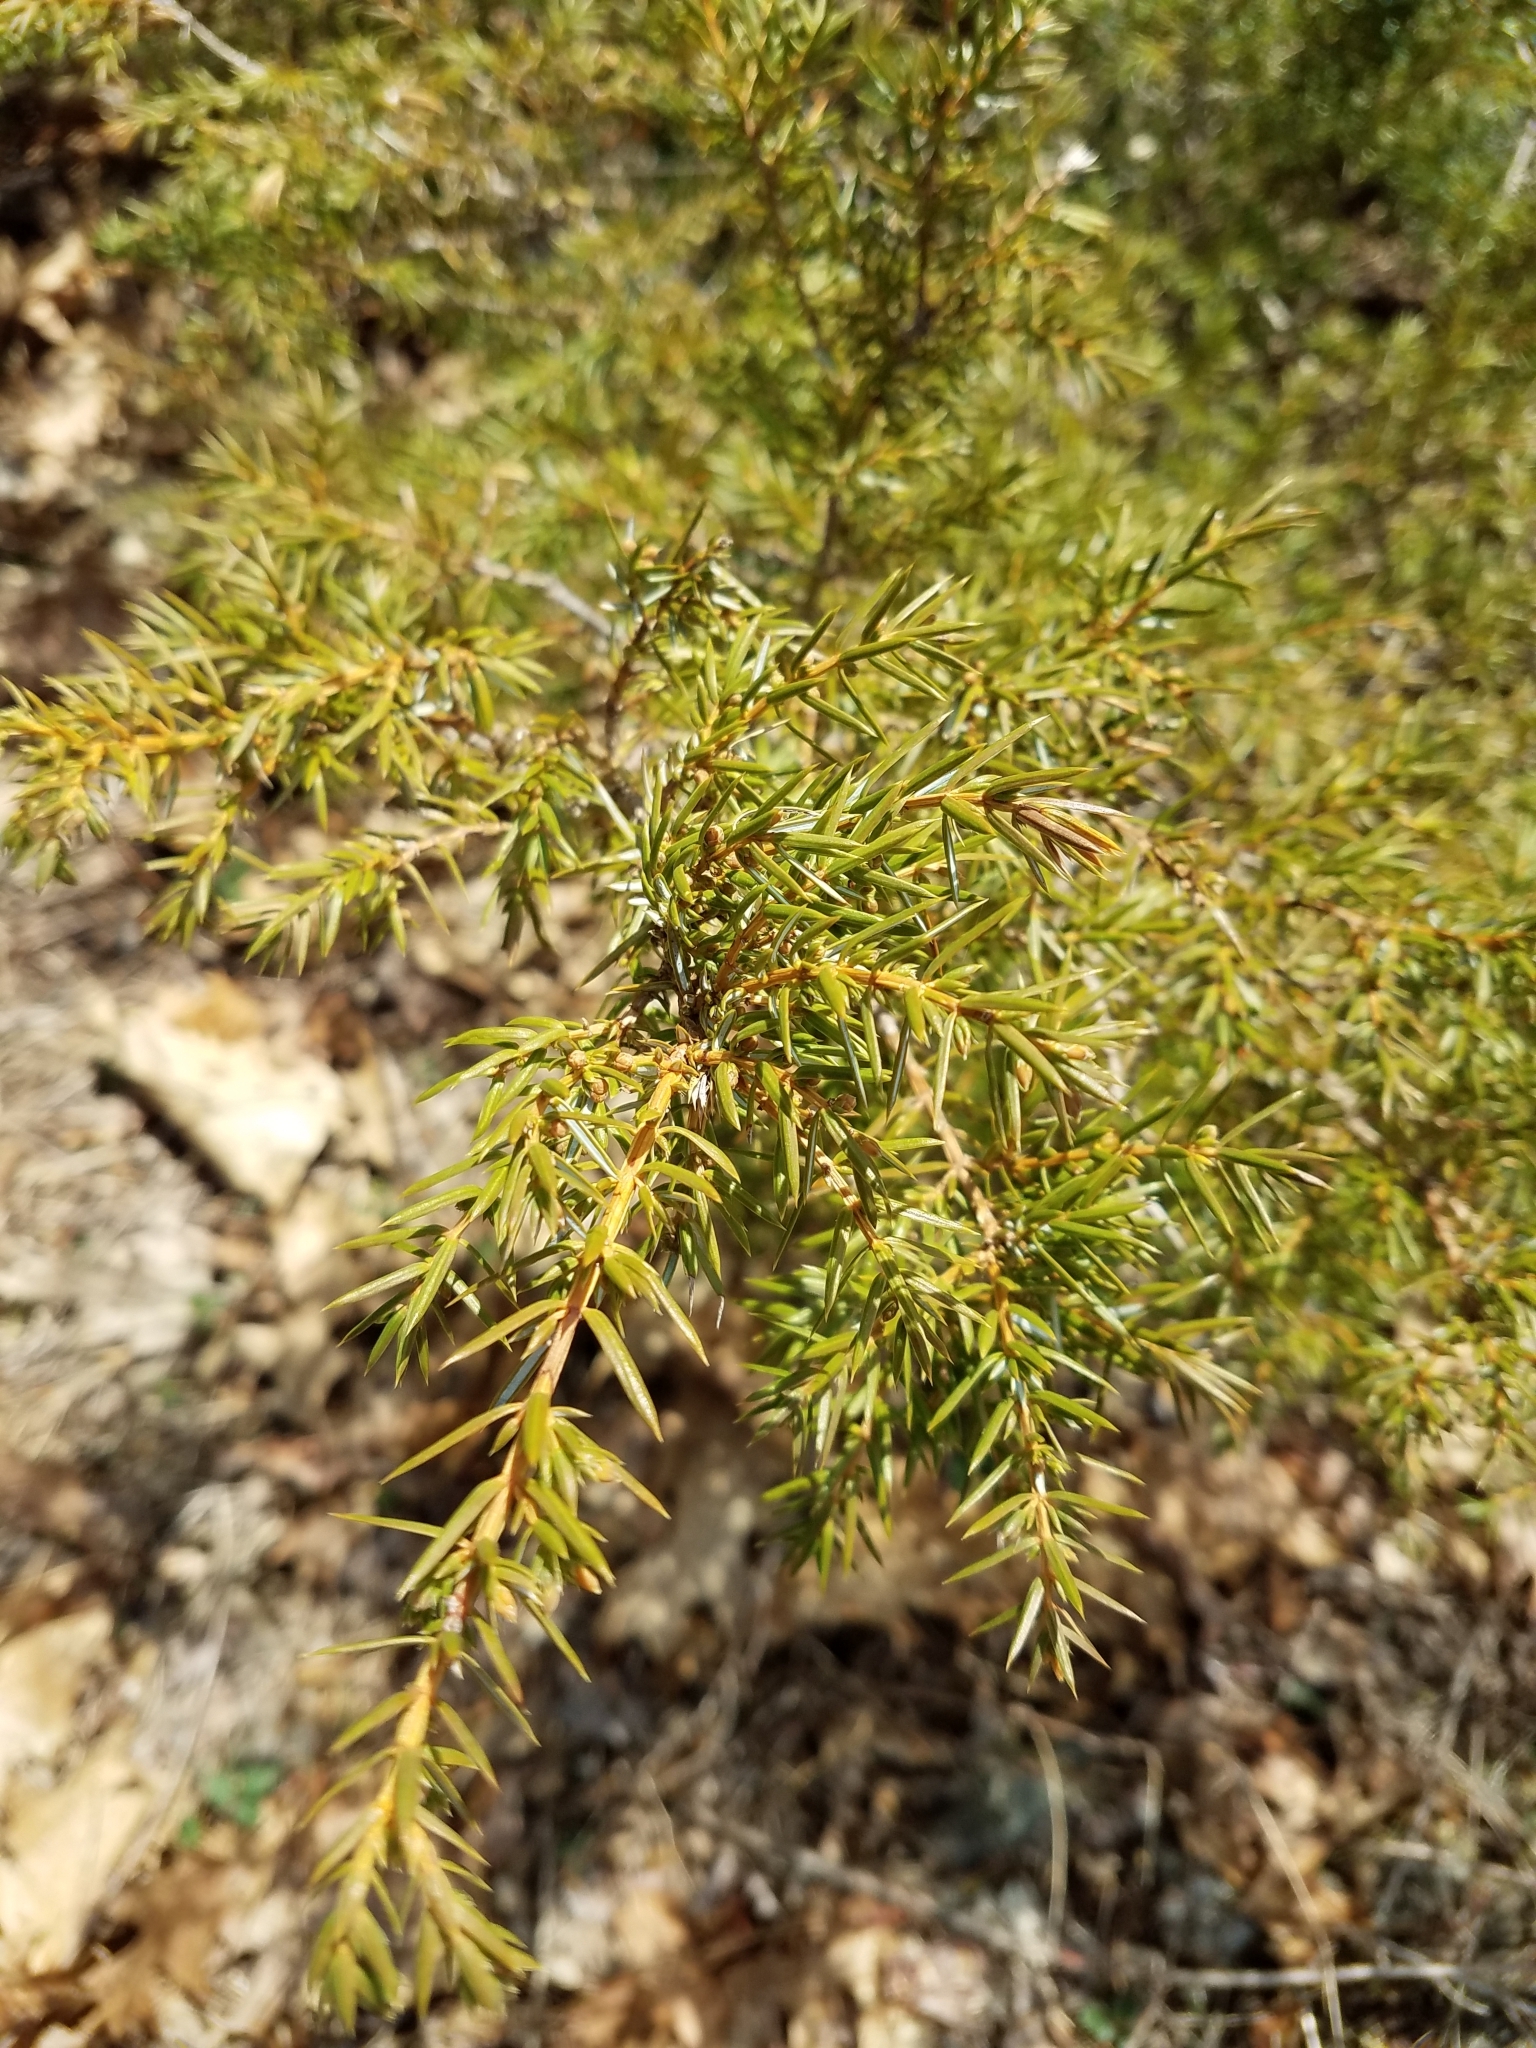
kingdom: Plantae
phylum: Tracheophyta
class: Pinopsida
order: Pinales
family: Cupressaceae
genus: Juniperus
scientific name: Juniperus communis
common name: Common juniper
